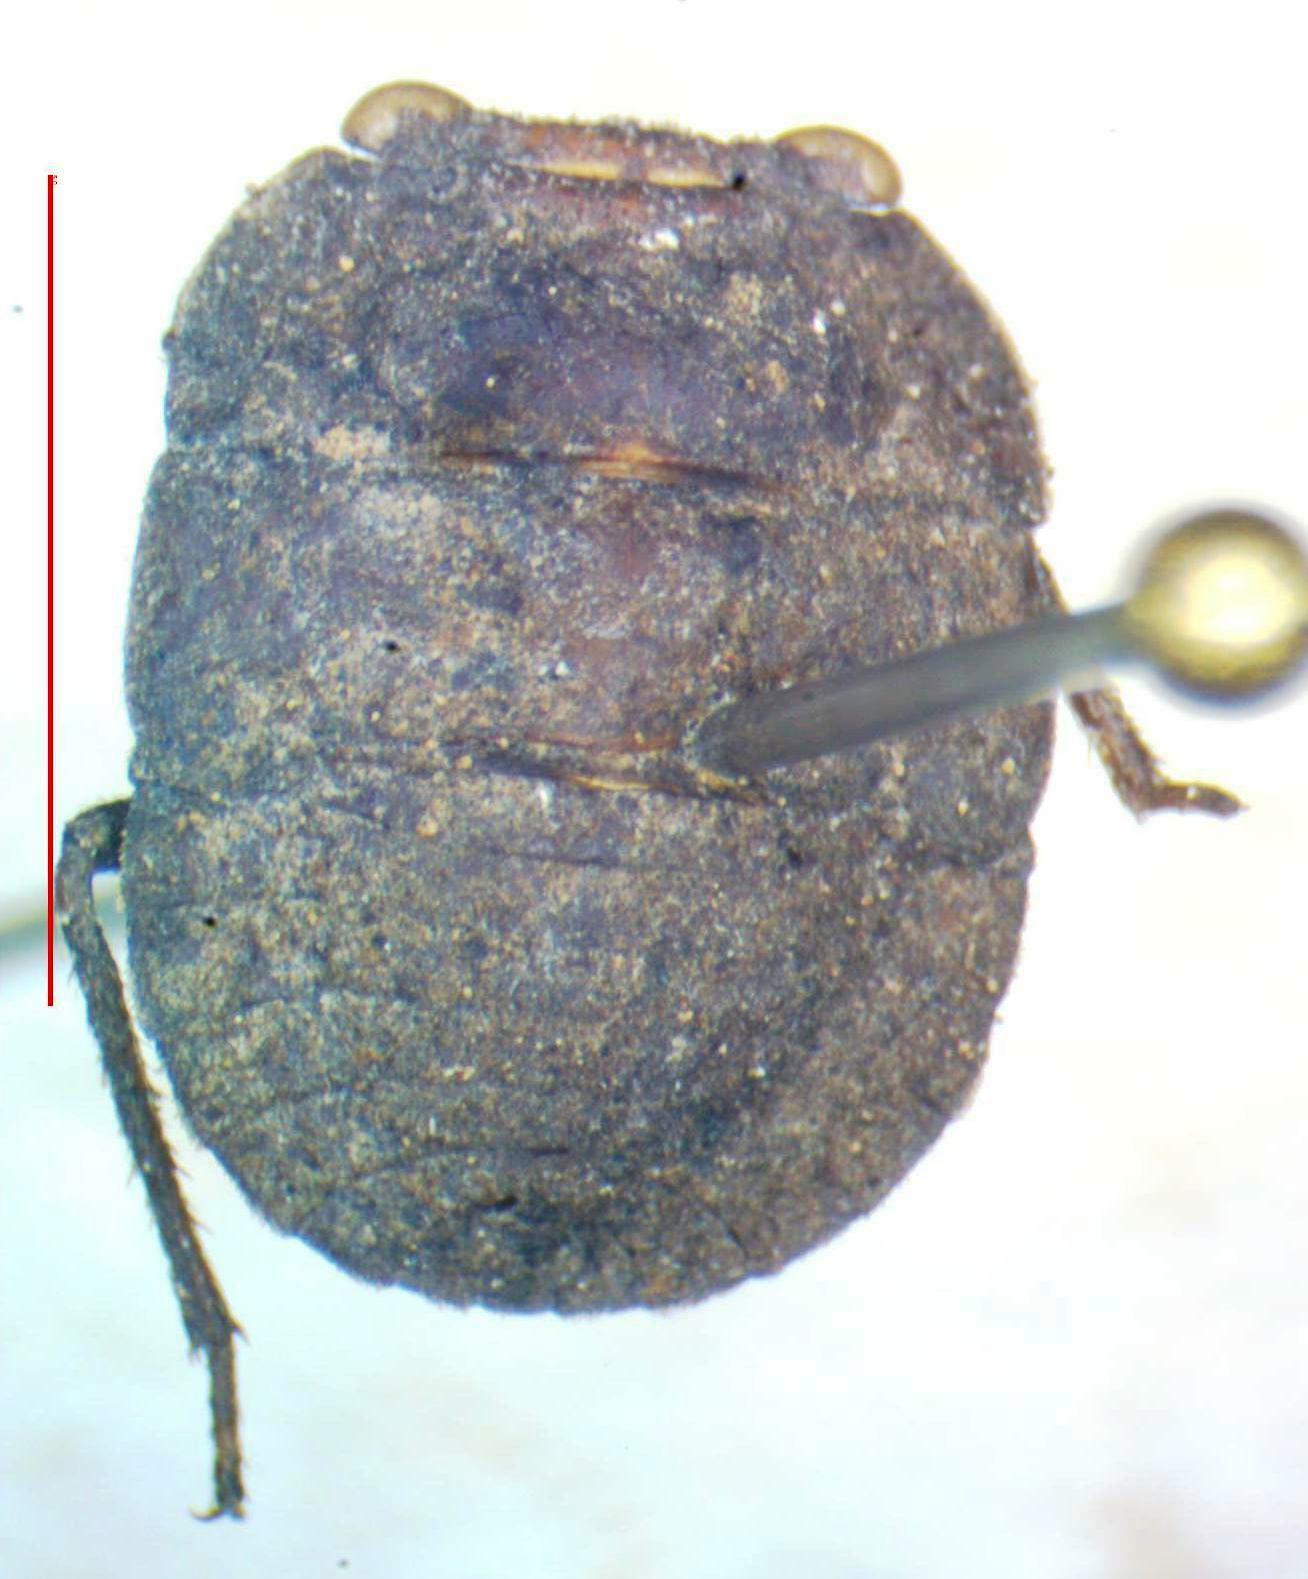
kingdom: Animalia
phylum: Arthropoda
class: Insecta
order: Hemiptera
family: Gelastocoridae
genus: Nerthra
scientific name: Nerthra
